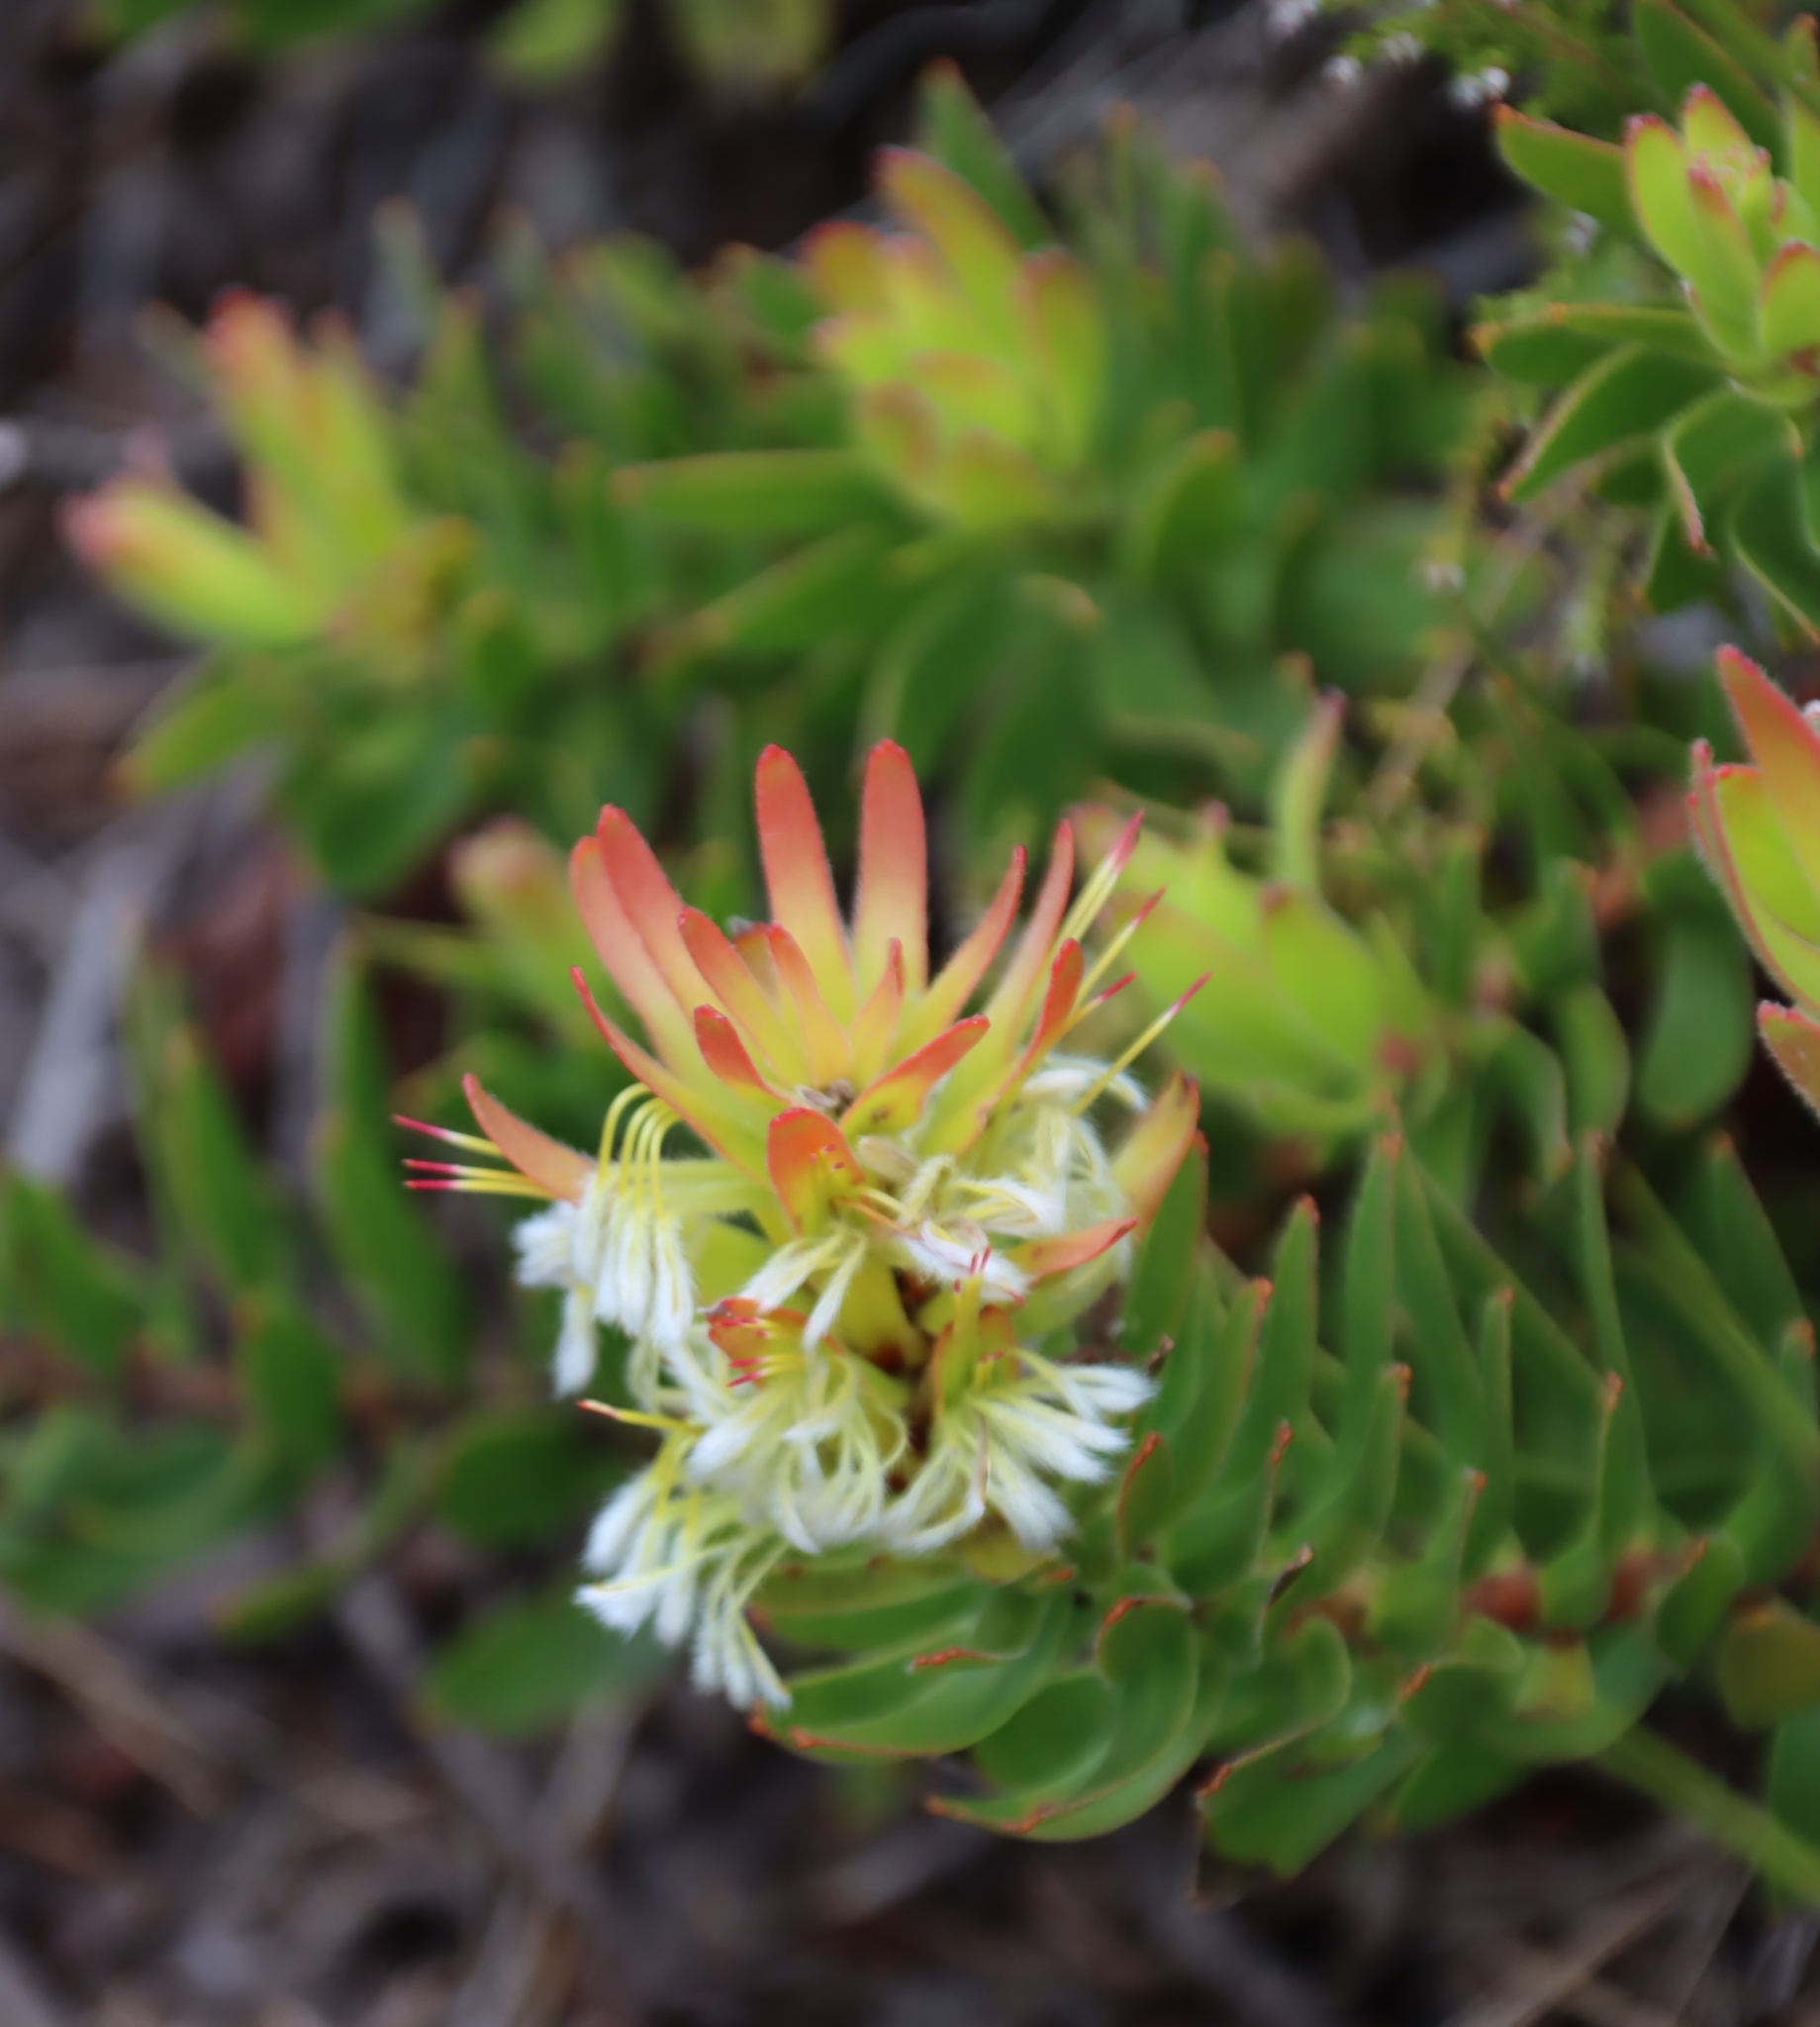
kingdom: Plantae
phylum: Tracheophyta
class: Magnoliopsida
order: Proteales
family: Proteaceae
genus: Mimetes
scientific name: Mimetes cucullatus
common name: Common pagoda
